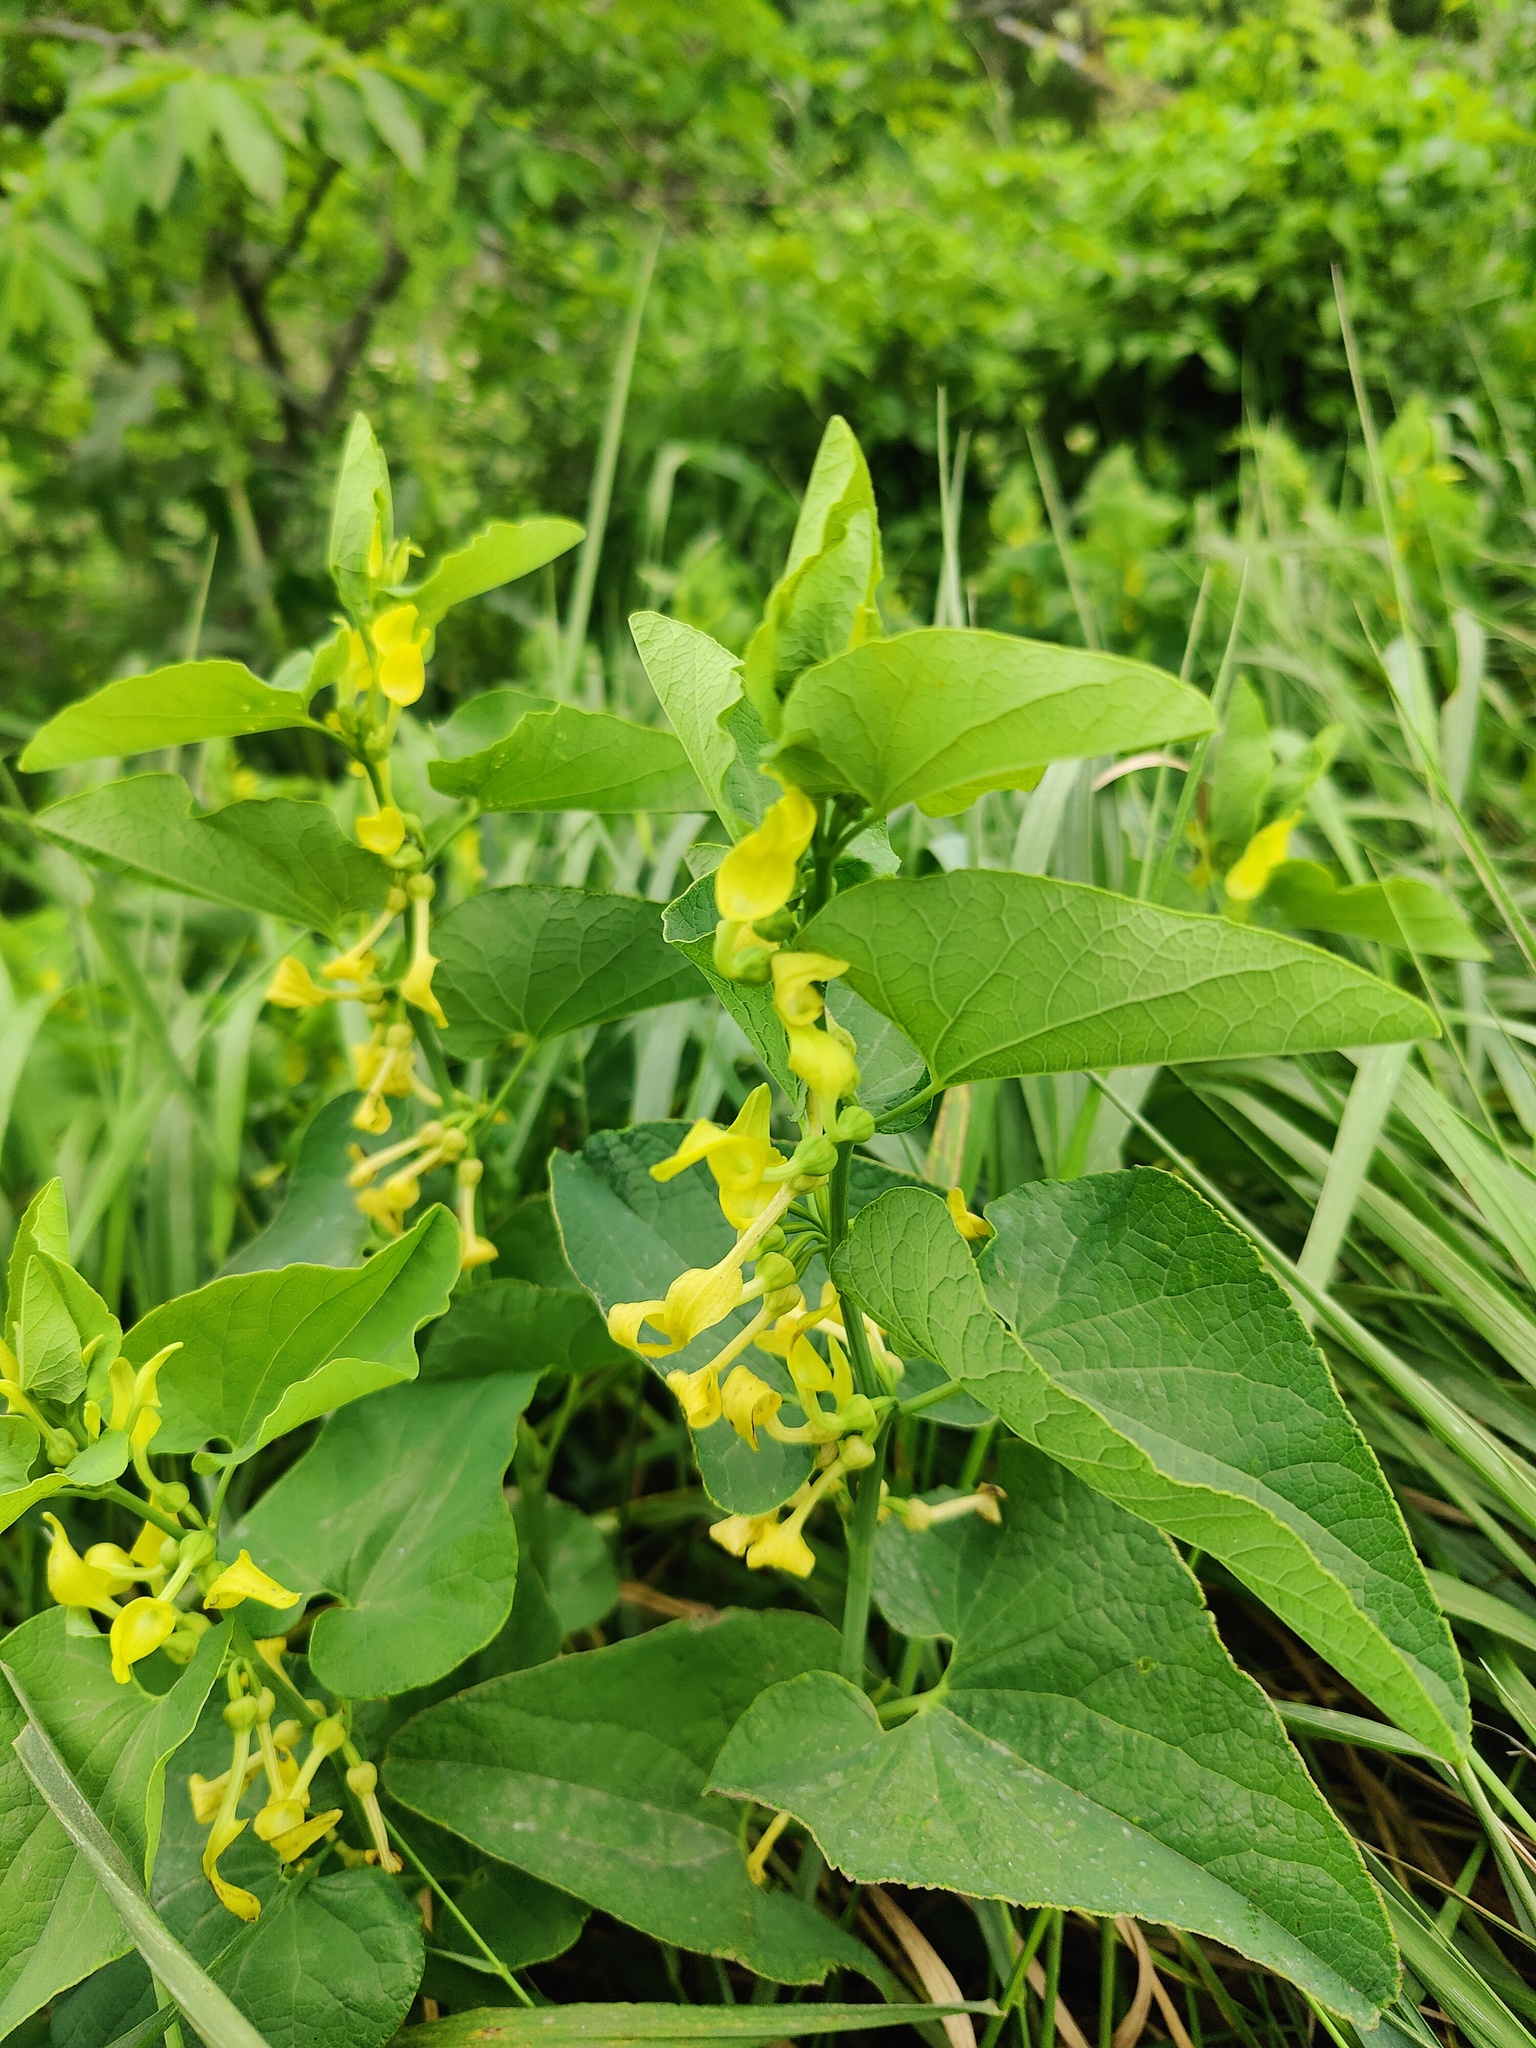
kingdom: Plantae
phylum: Tracheophyta
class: Magnoliopsida
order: Piperales
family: Aristolochiaceae
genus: Aristolochia
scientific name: Aristolochia clematitis
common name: Birthwort
